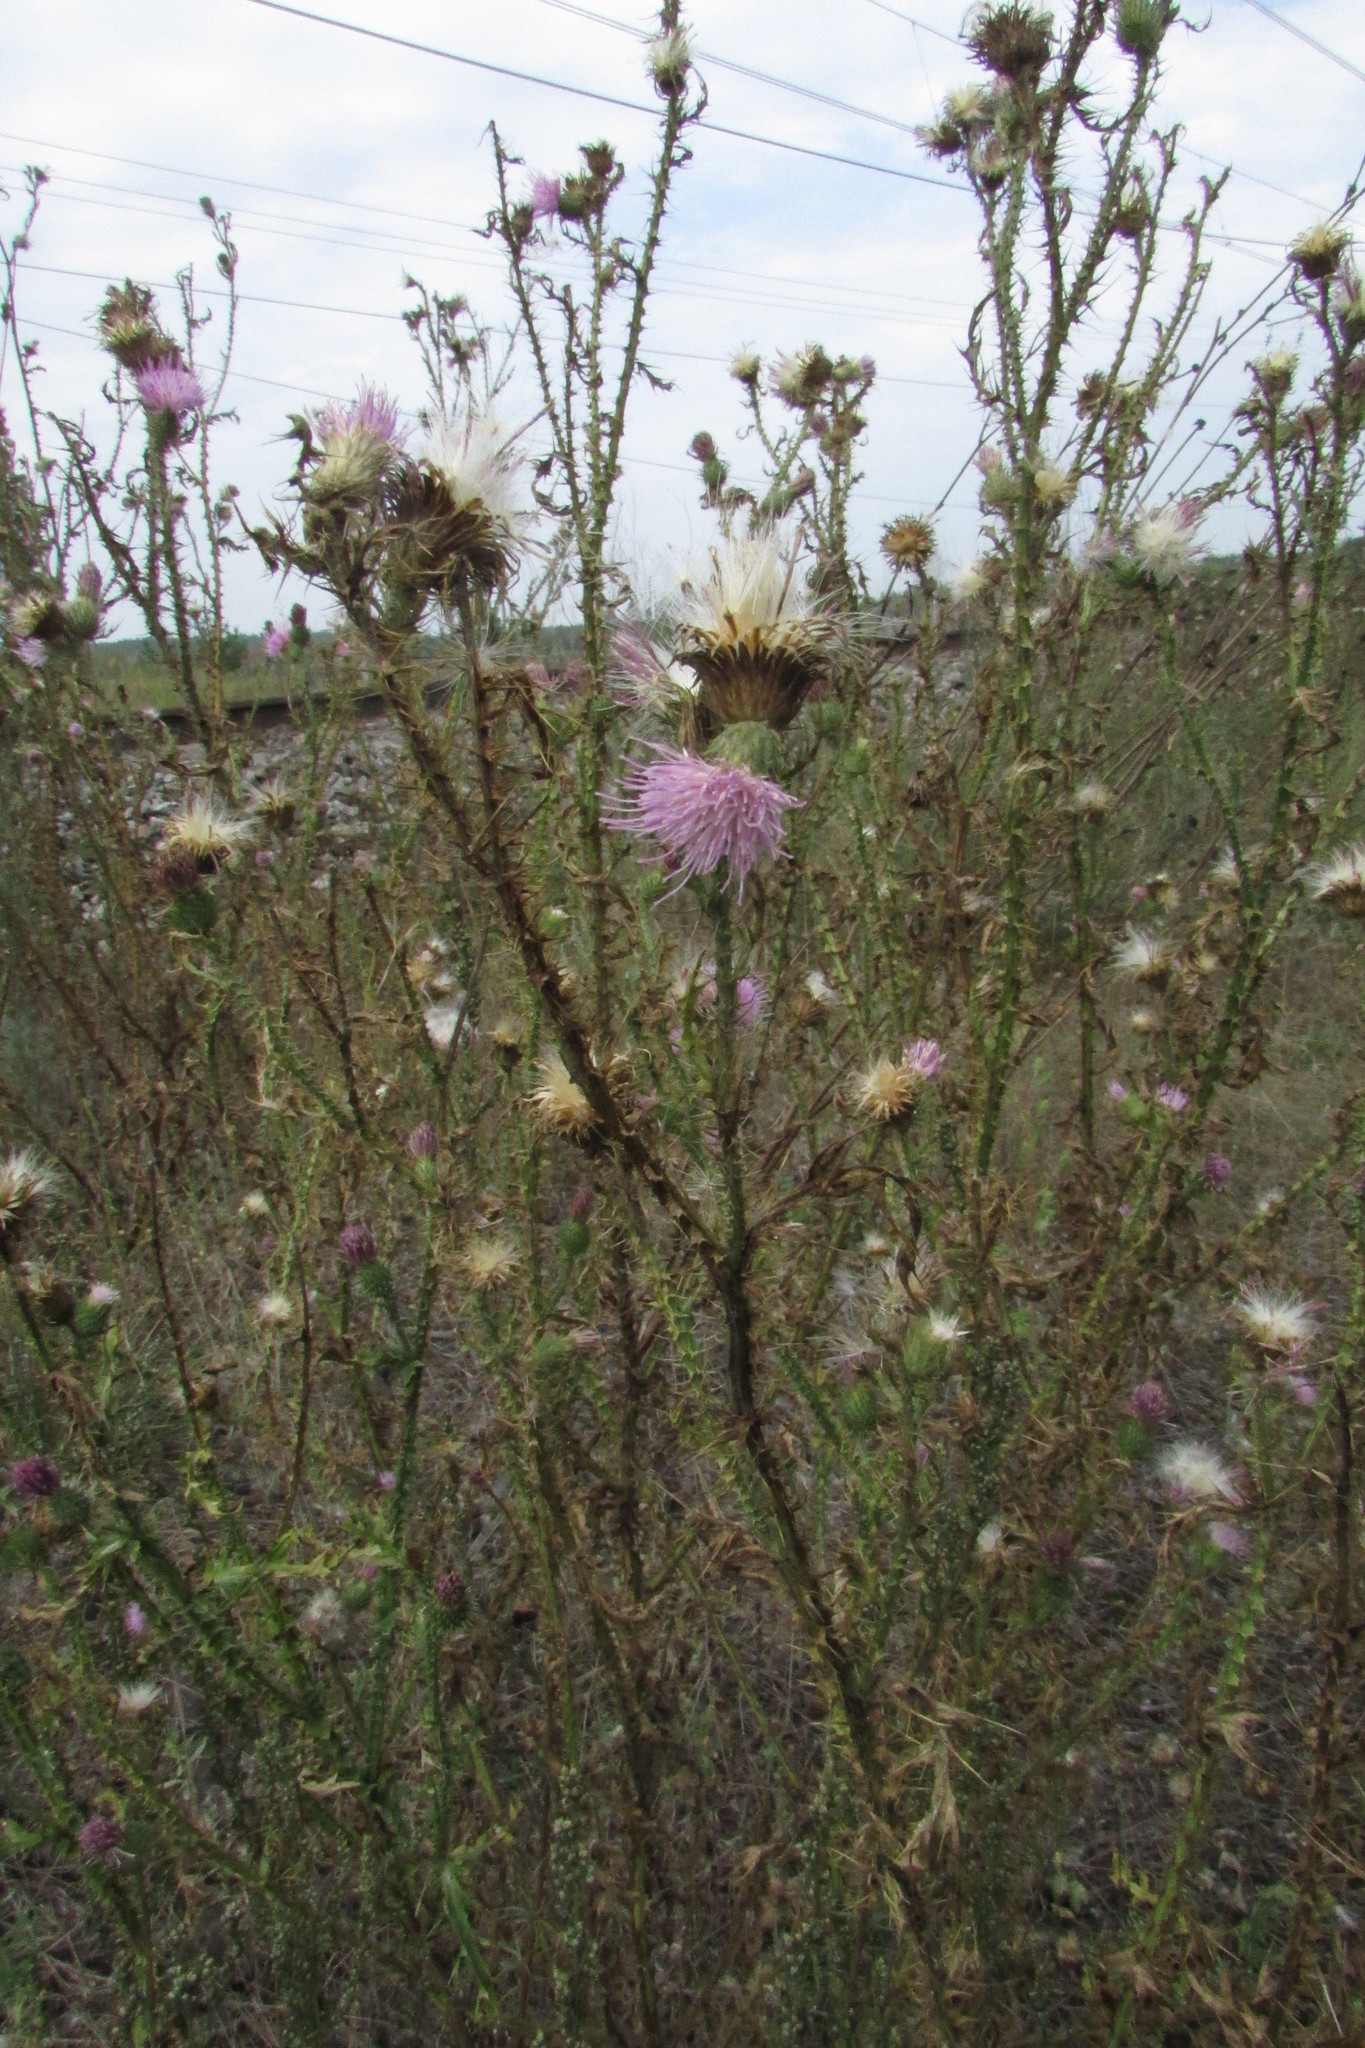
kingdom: Plantae
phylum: Tracheophyta
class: Magnoliopsida
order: Asterales
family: Asteraceae
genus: Carduus
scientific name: Carduus acanthoides
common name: Plumeless thistle
